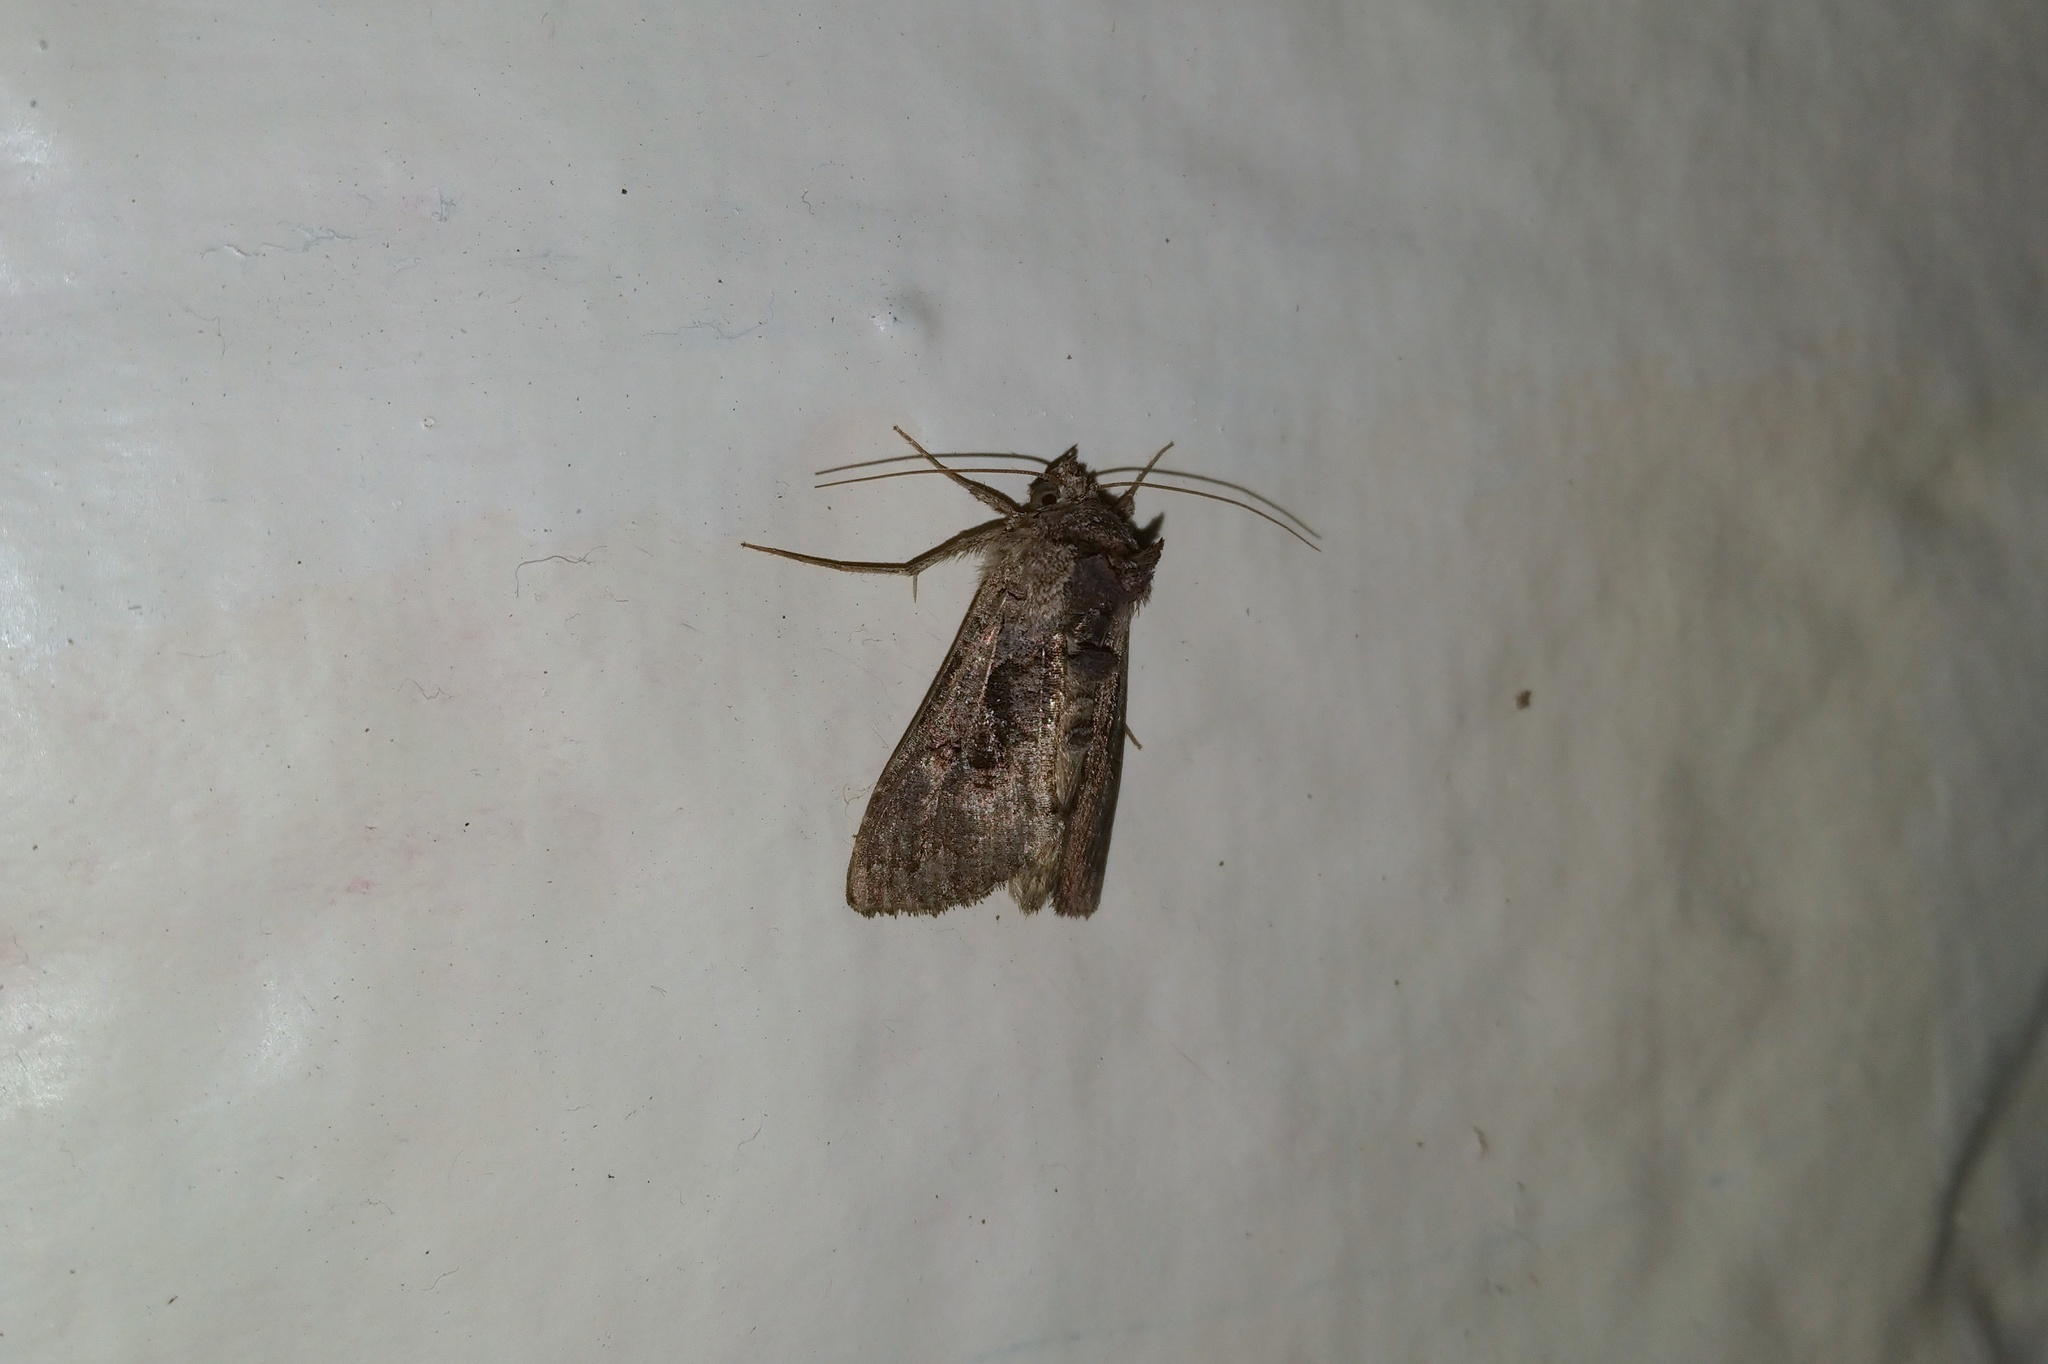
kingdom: Animalia
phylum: Arthropoda
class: Insecta
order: Lepidoptera
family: Noctuidae
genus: Ctenoplusia
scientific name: Ctenoplusia albostriata
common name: Moth
